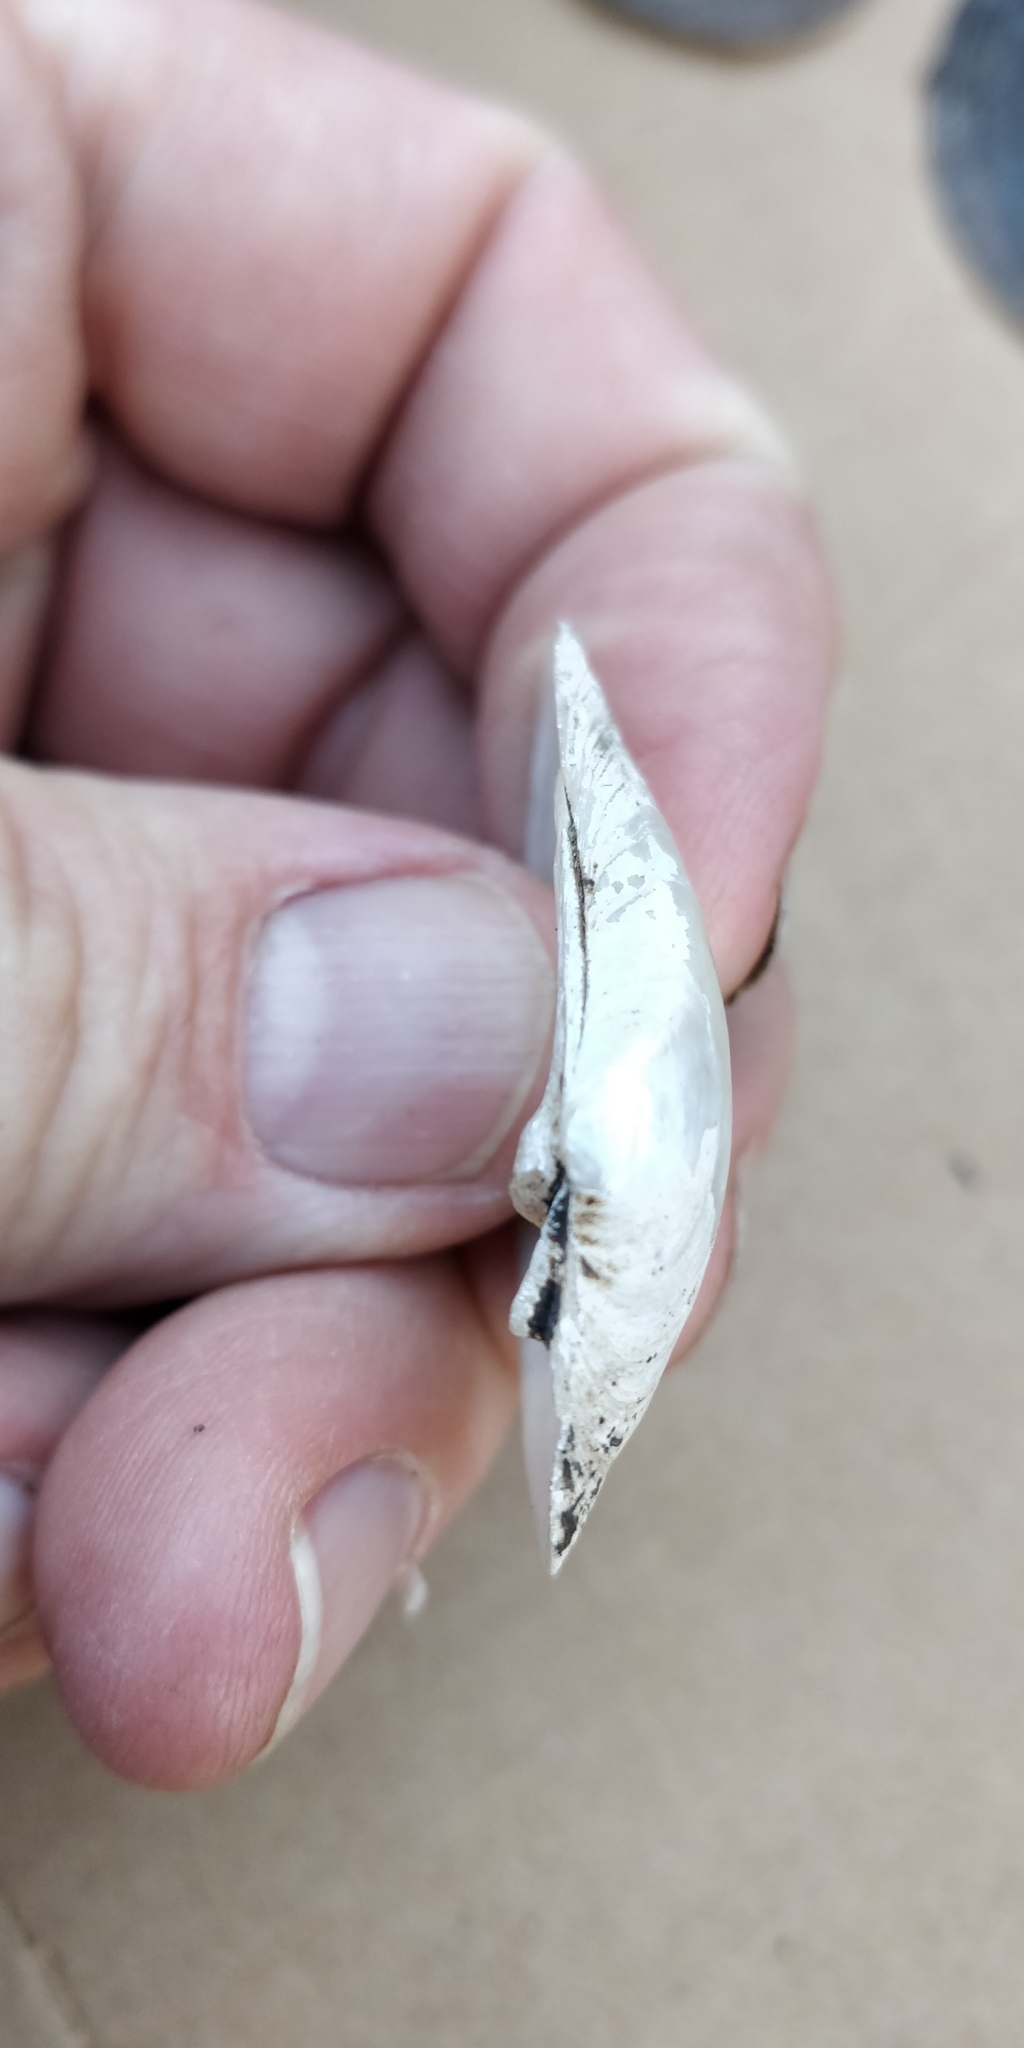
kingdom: Animalia
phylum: Mollusca
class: Bivalvia
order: Unionida
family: Unionidae
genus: Truncilla
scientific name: Truncilla donaciformis
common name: Fawnsfoot
